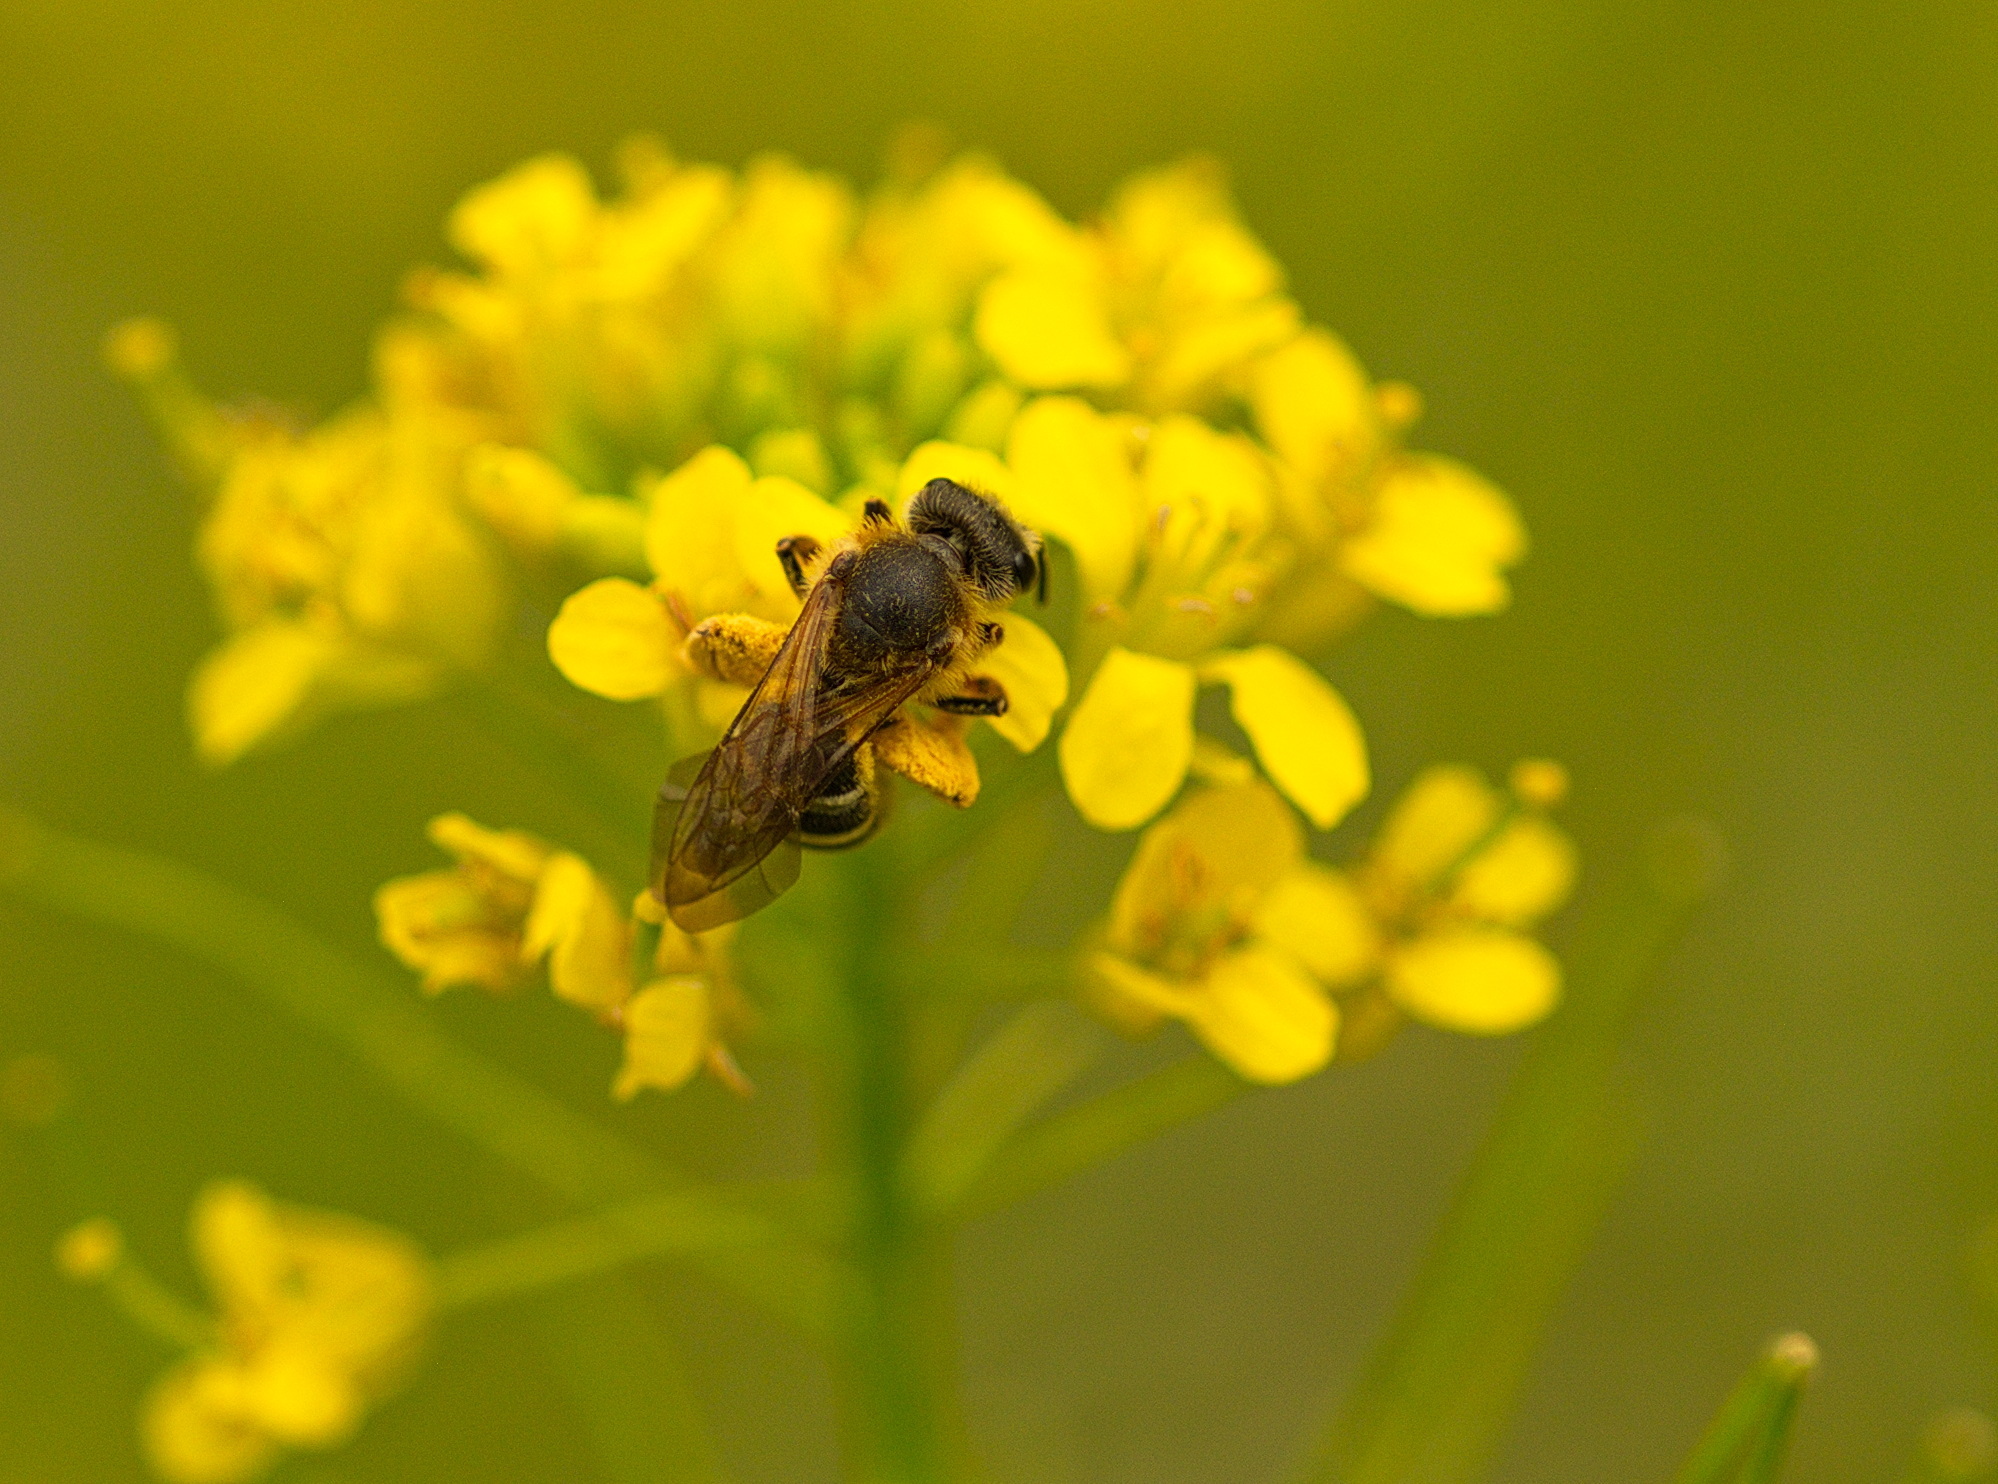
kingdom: Animalia
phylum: Arthropoda
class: Insecta
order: Hymenoptera
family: Halictidae
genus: Halictus
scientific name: Halictus rubicundus
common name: Orange-legged furrow bee
